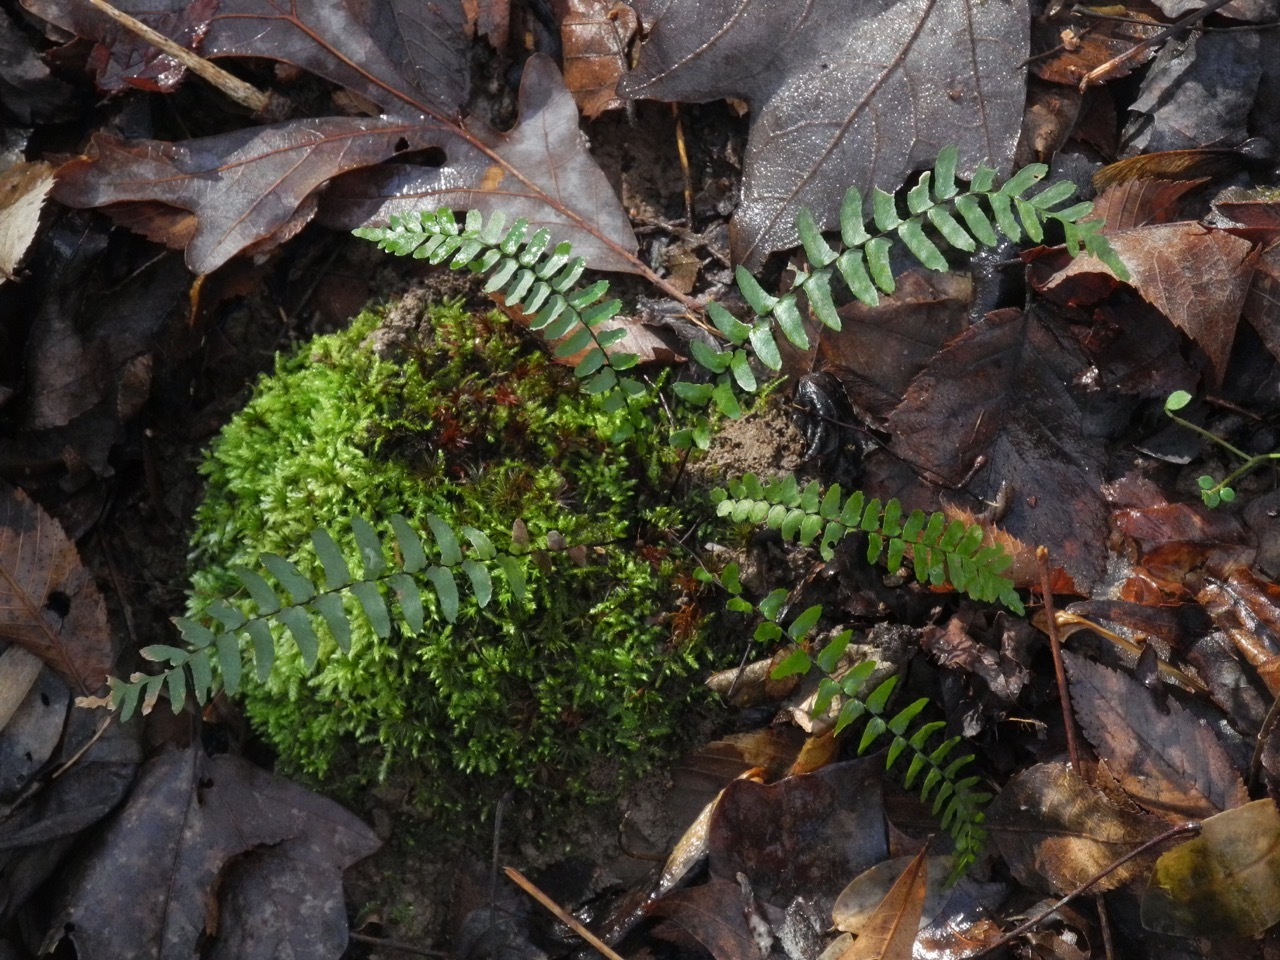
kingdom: Plantae
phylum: Tracheophyta
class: Polypodiopsida
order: Polypodiales
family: Aspleniaceae
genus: Asplenium
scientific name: Asplenium platyneuron
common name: Ebony spleenwort
